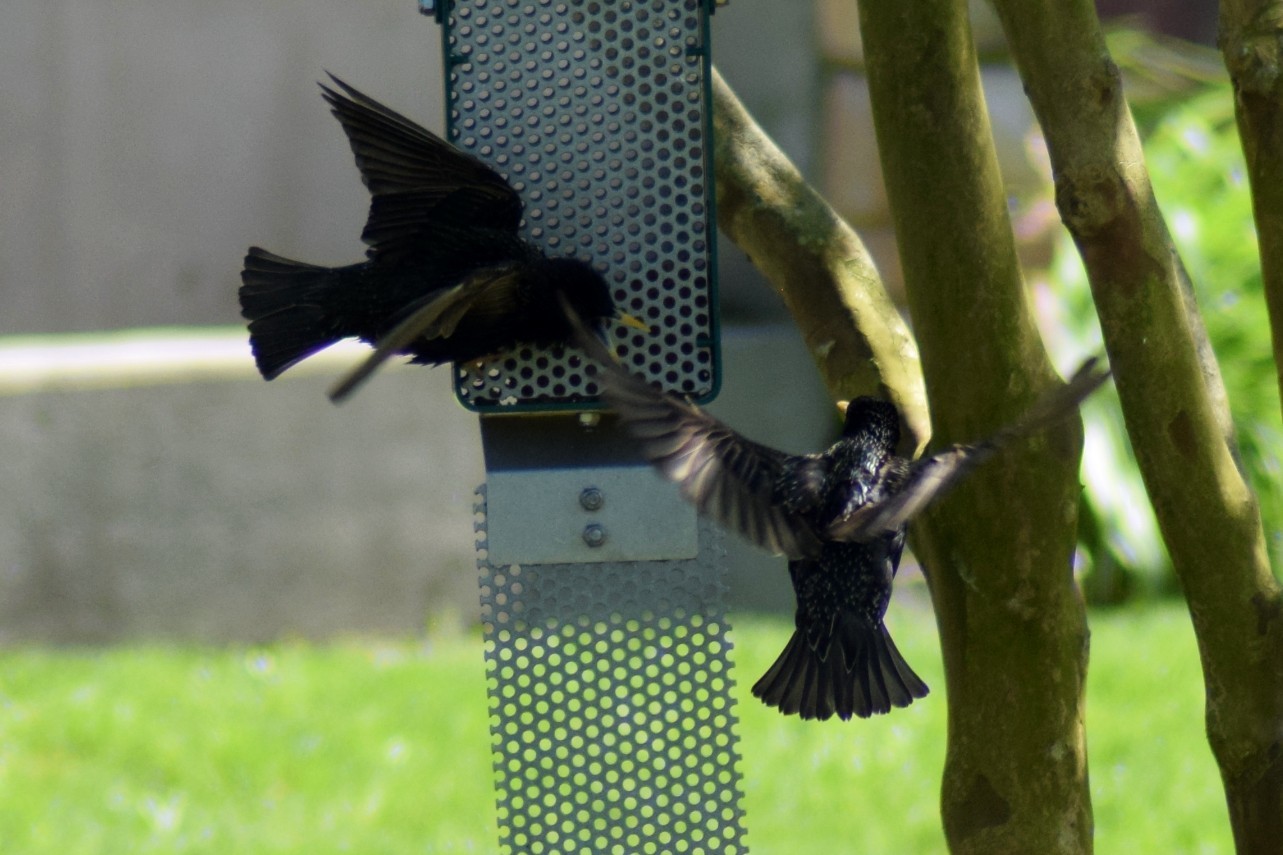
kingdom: Animalia
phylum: Chordata
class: Aves
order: Passeriformes
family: Sturnidae
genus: Sturnus
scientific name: Sturnus vulgaris
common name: Common starling
